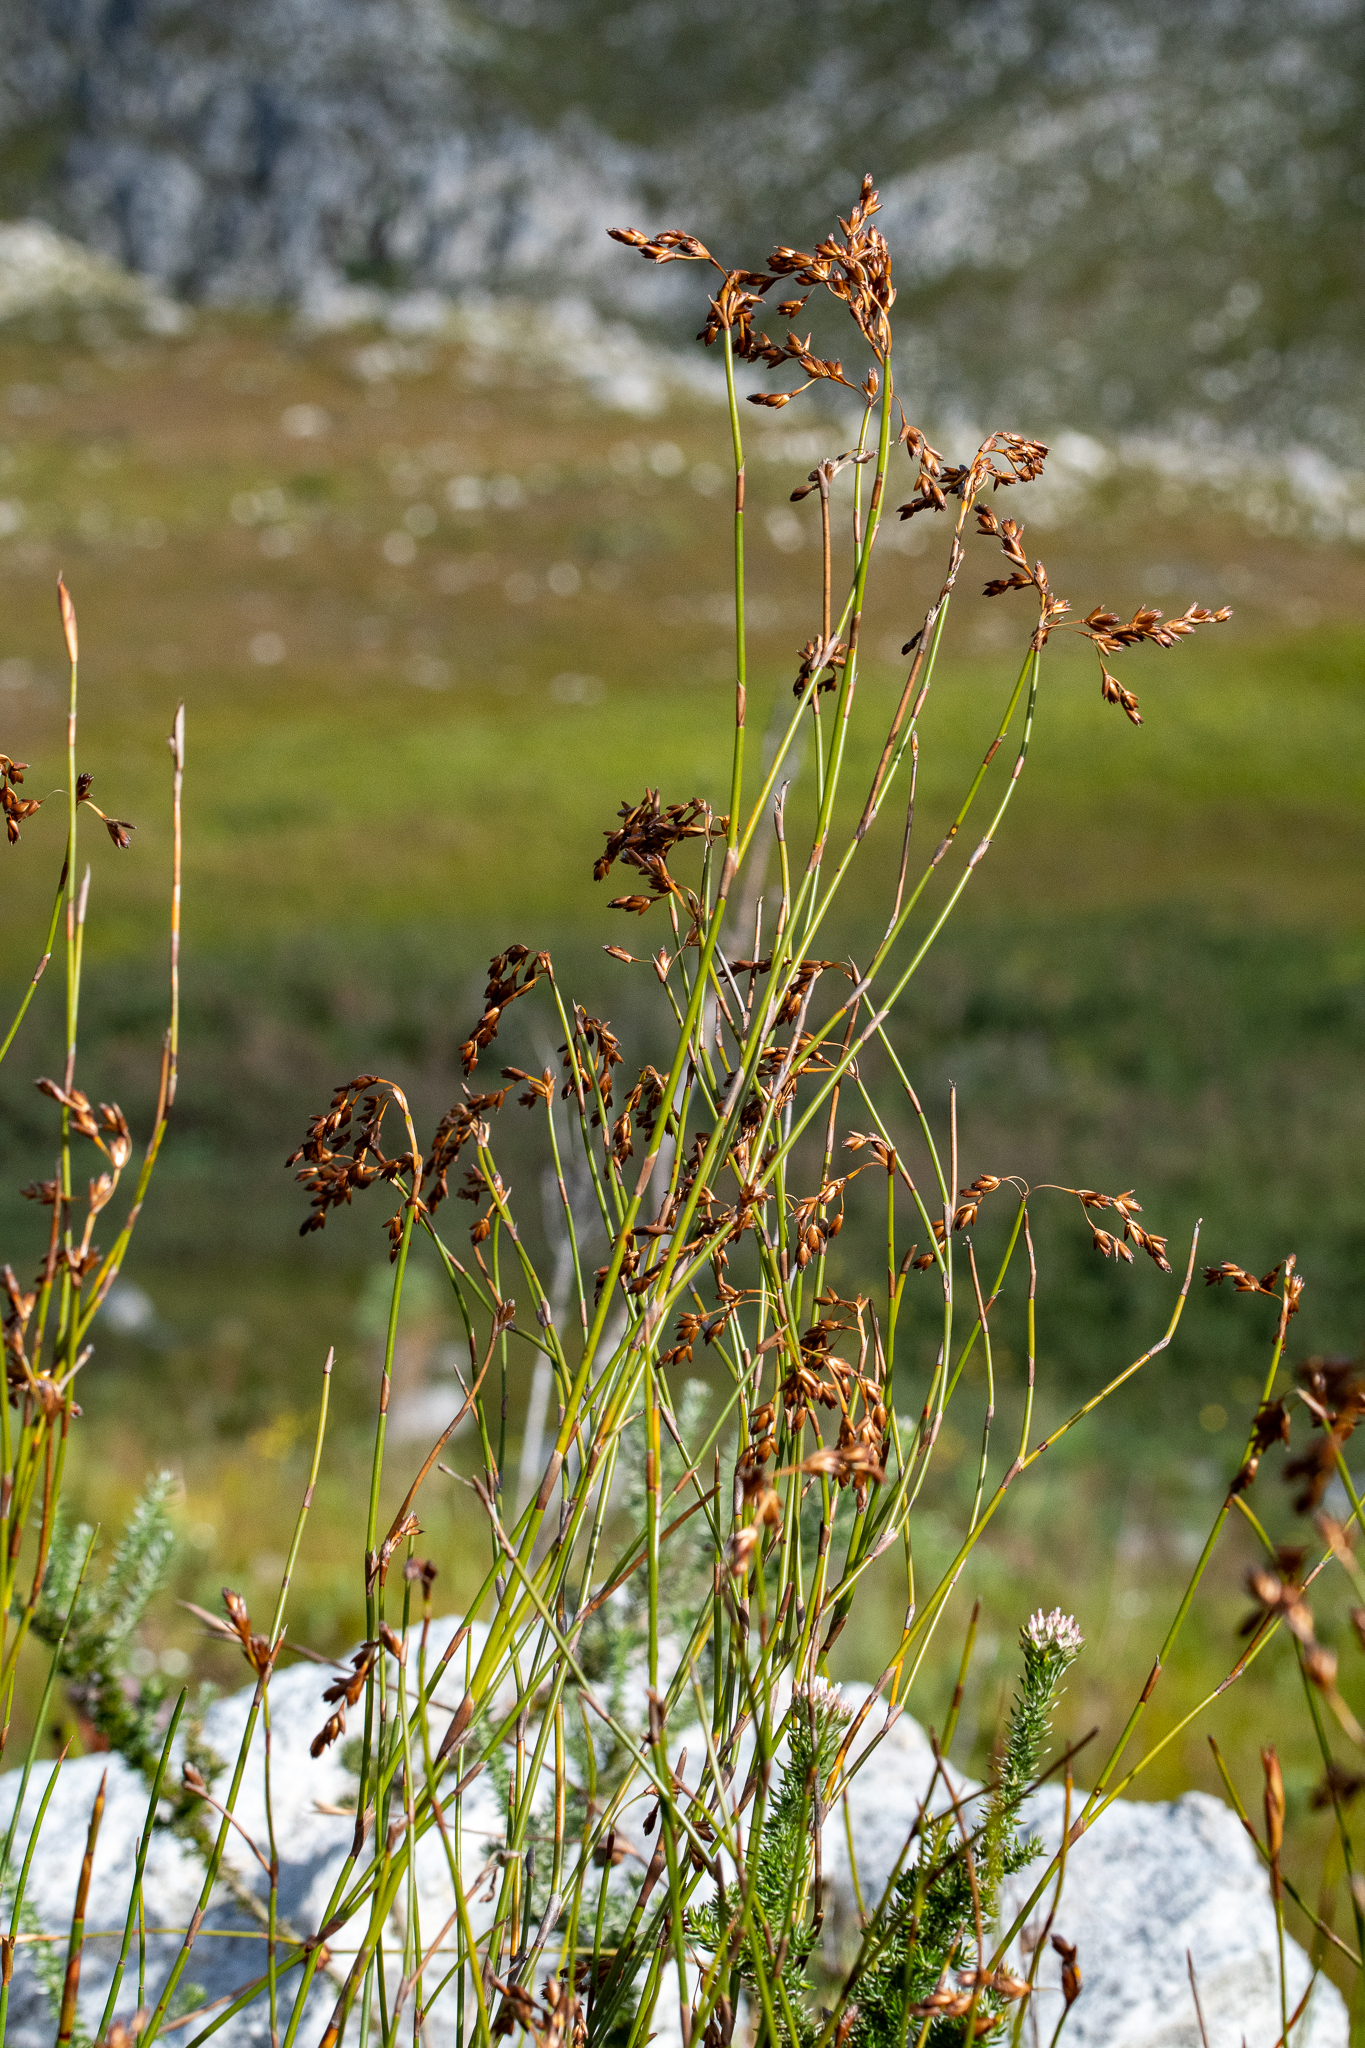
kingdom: Plantae
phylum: Tracheophyta
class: Liliopsida
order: Poales
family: Restionaceae
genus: Restio
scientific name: Restio egregius
